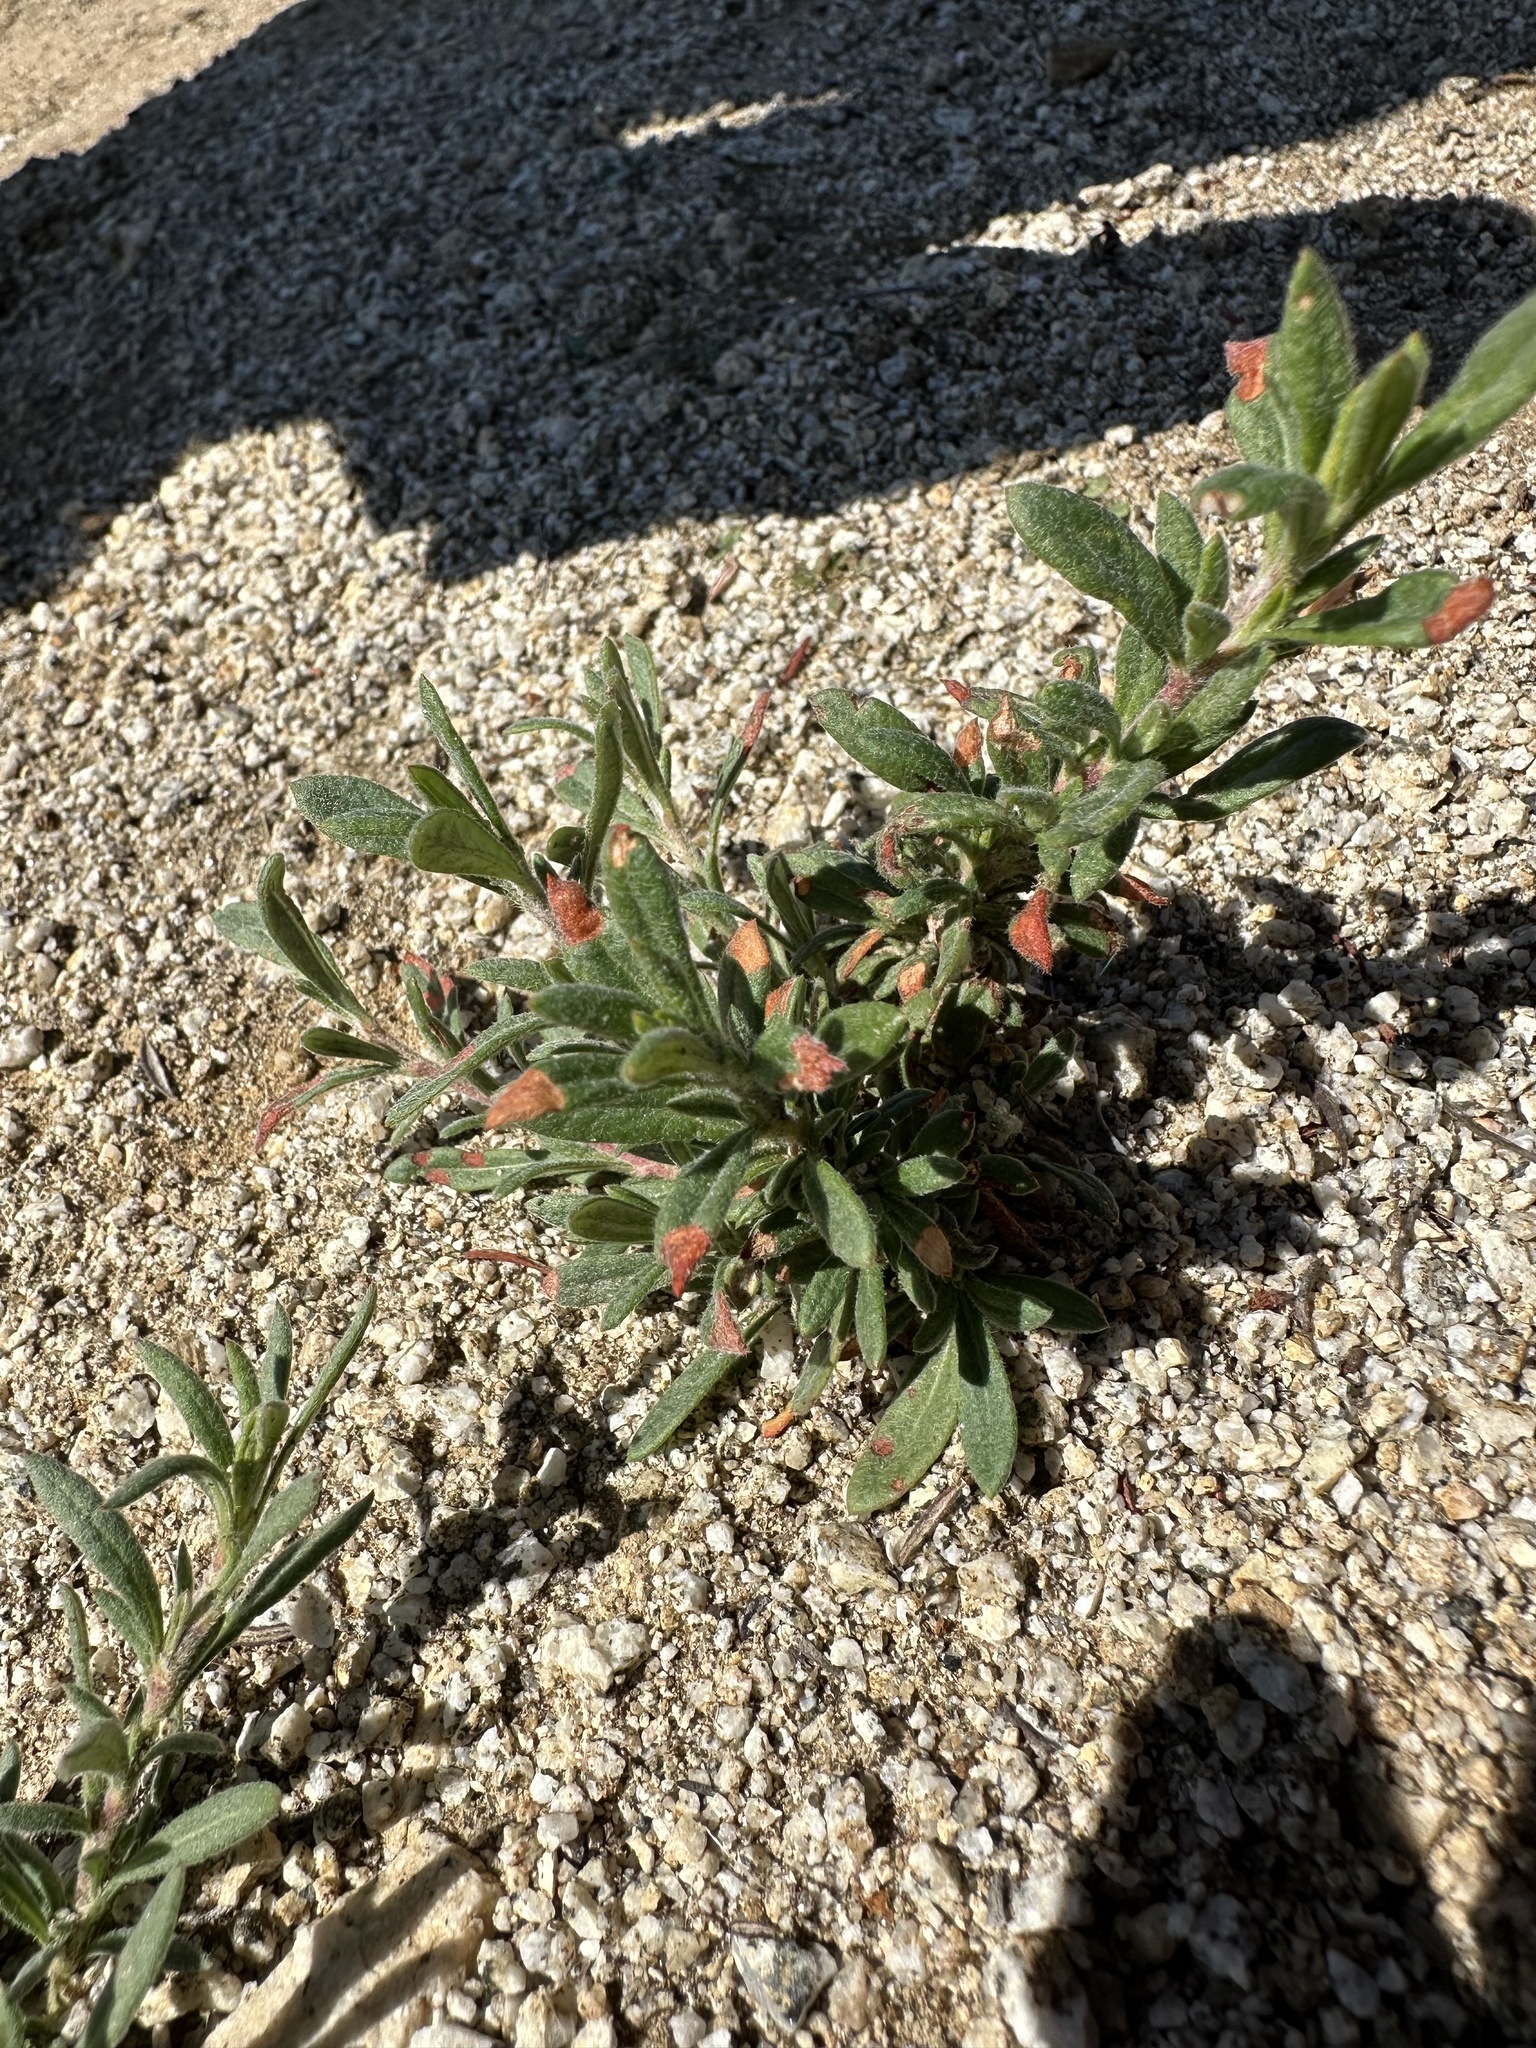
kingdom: Plantae
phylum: Tracheophyta
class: Magnoliopsida
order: Myrtales
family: Onagraceae
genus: Camissoniopsis
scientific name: Camissoniopsis micrantha
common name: Miniature suncup
